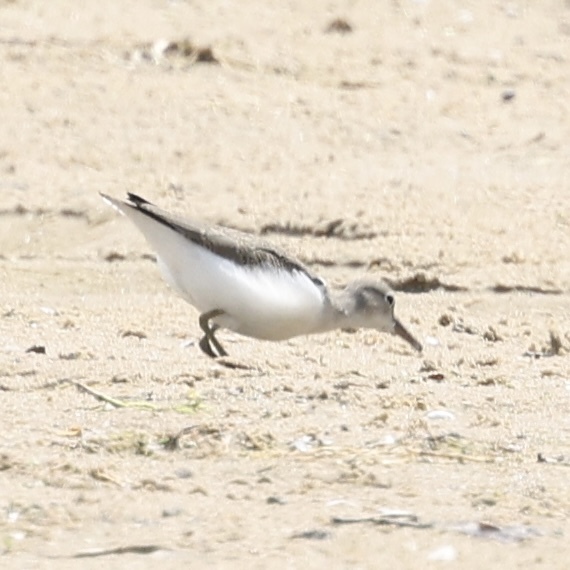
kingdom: Animalia
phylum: Chordata
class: Aves
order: Charadriiformes
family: Scolopacidae
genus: Actitis
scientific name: Actitis macularius
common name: Spotted sandpiper
